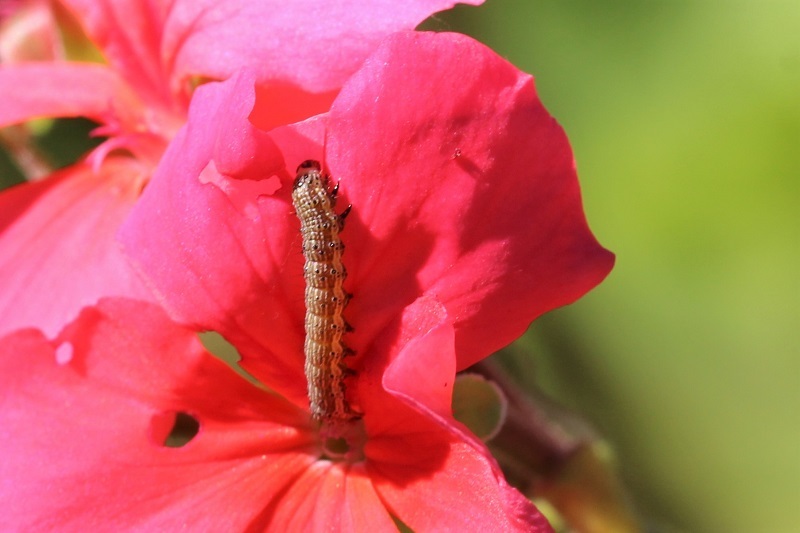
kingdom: Animalia
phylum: Arthropoda
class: Insecta
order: Lepidoptera
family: Noctuidae
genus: Helicoverpa
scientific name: Helicoverpa armigera
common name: Cotton bollworm
